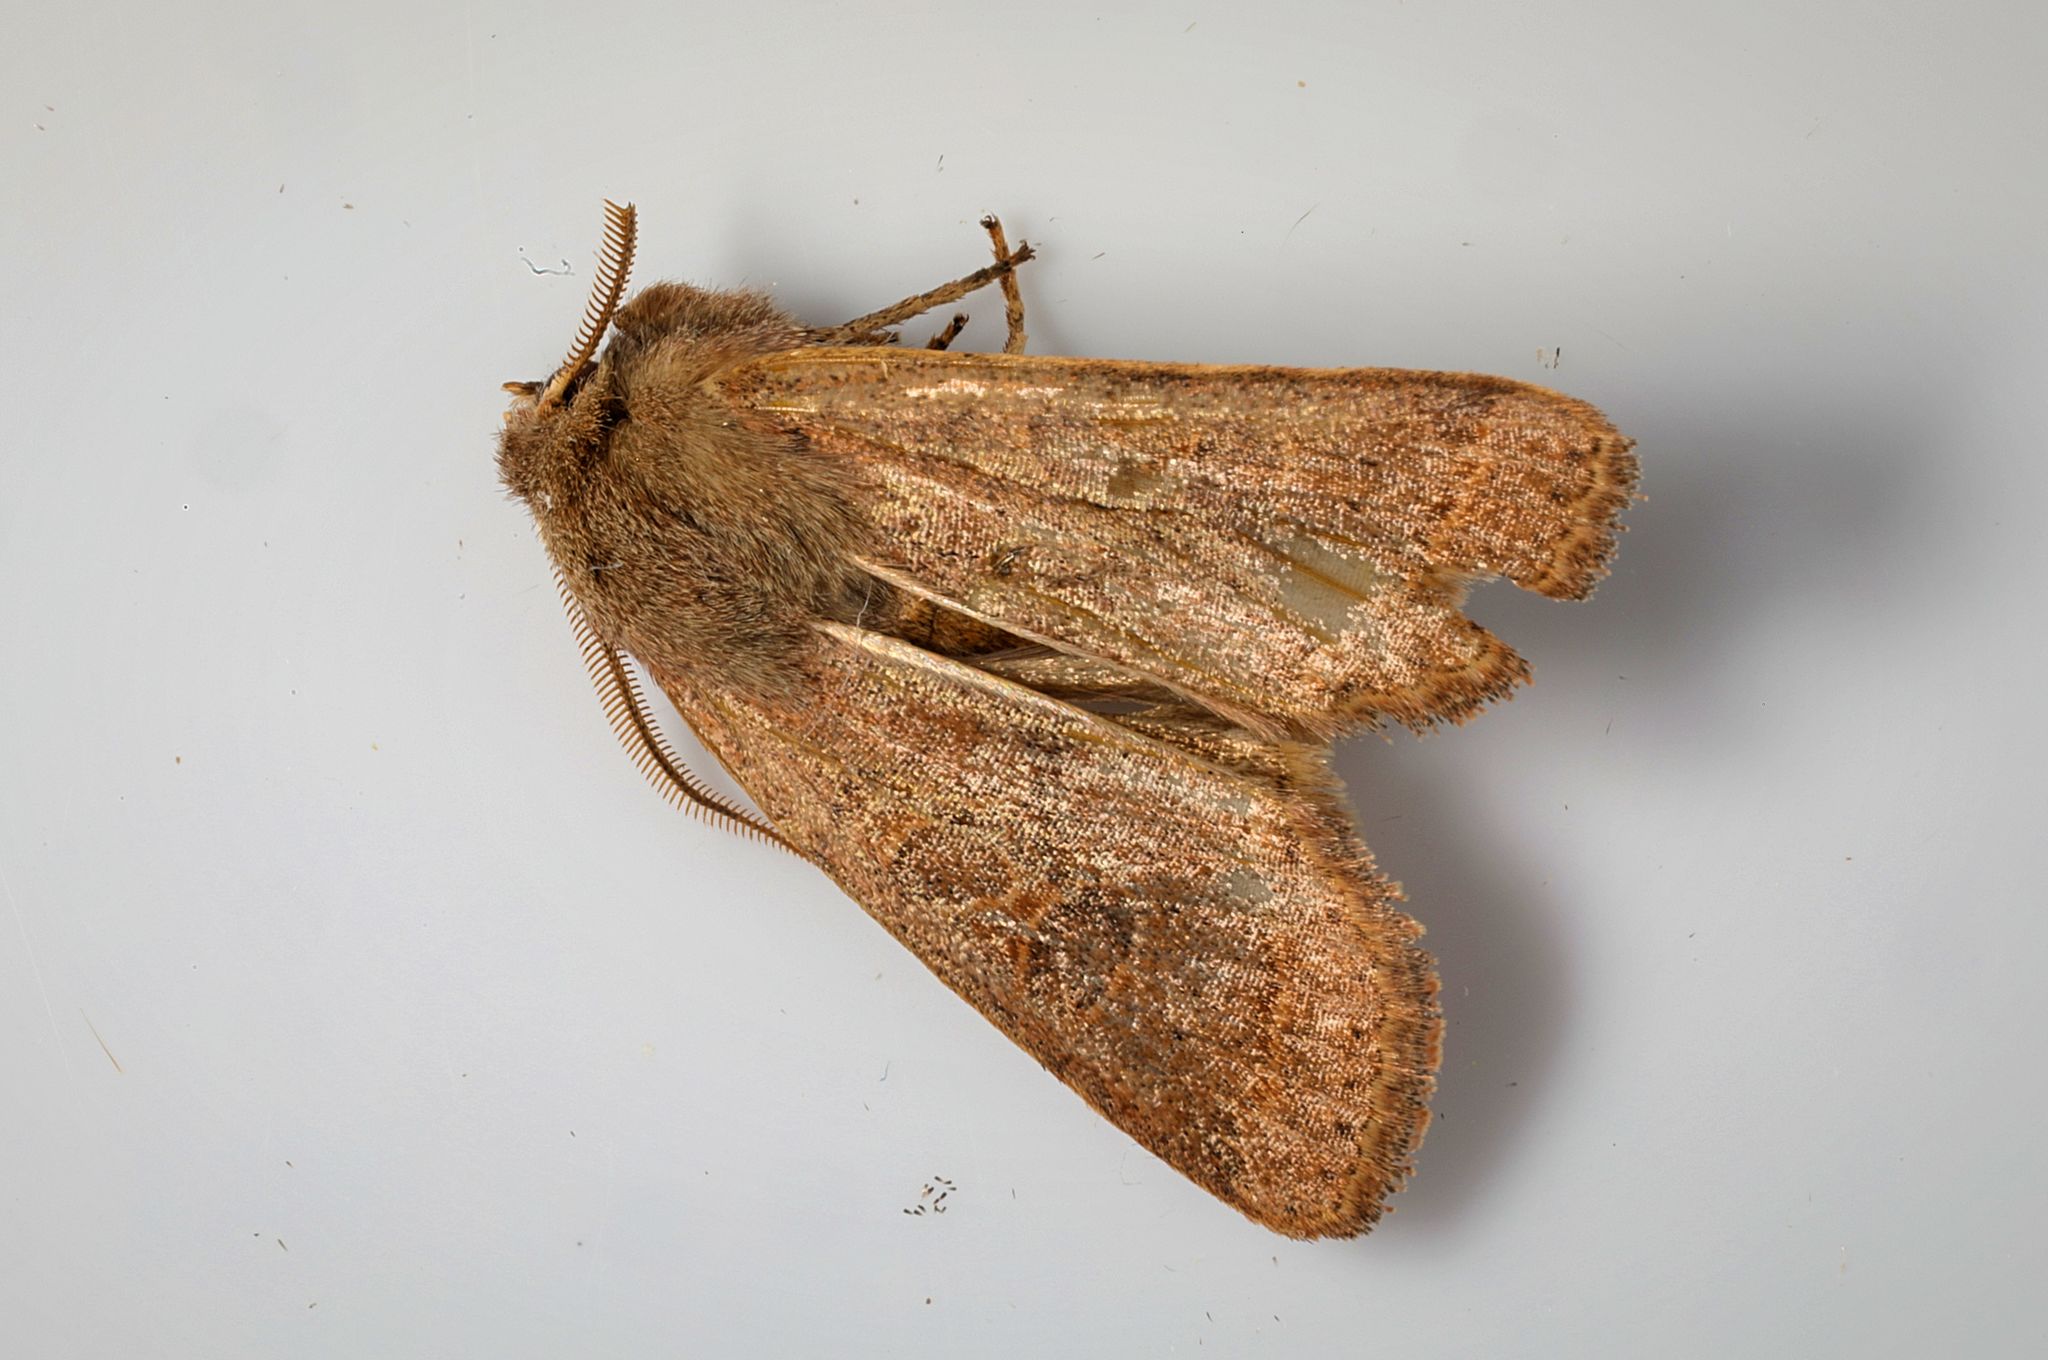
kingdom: Animalia
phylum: Arthropoda
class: Insecta
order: Lepidoptera
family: Noctuidae
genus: Orthosia
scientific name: Orthosia cerasi
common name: Common quaker
